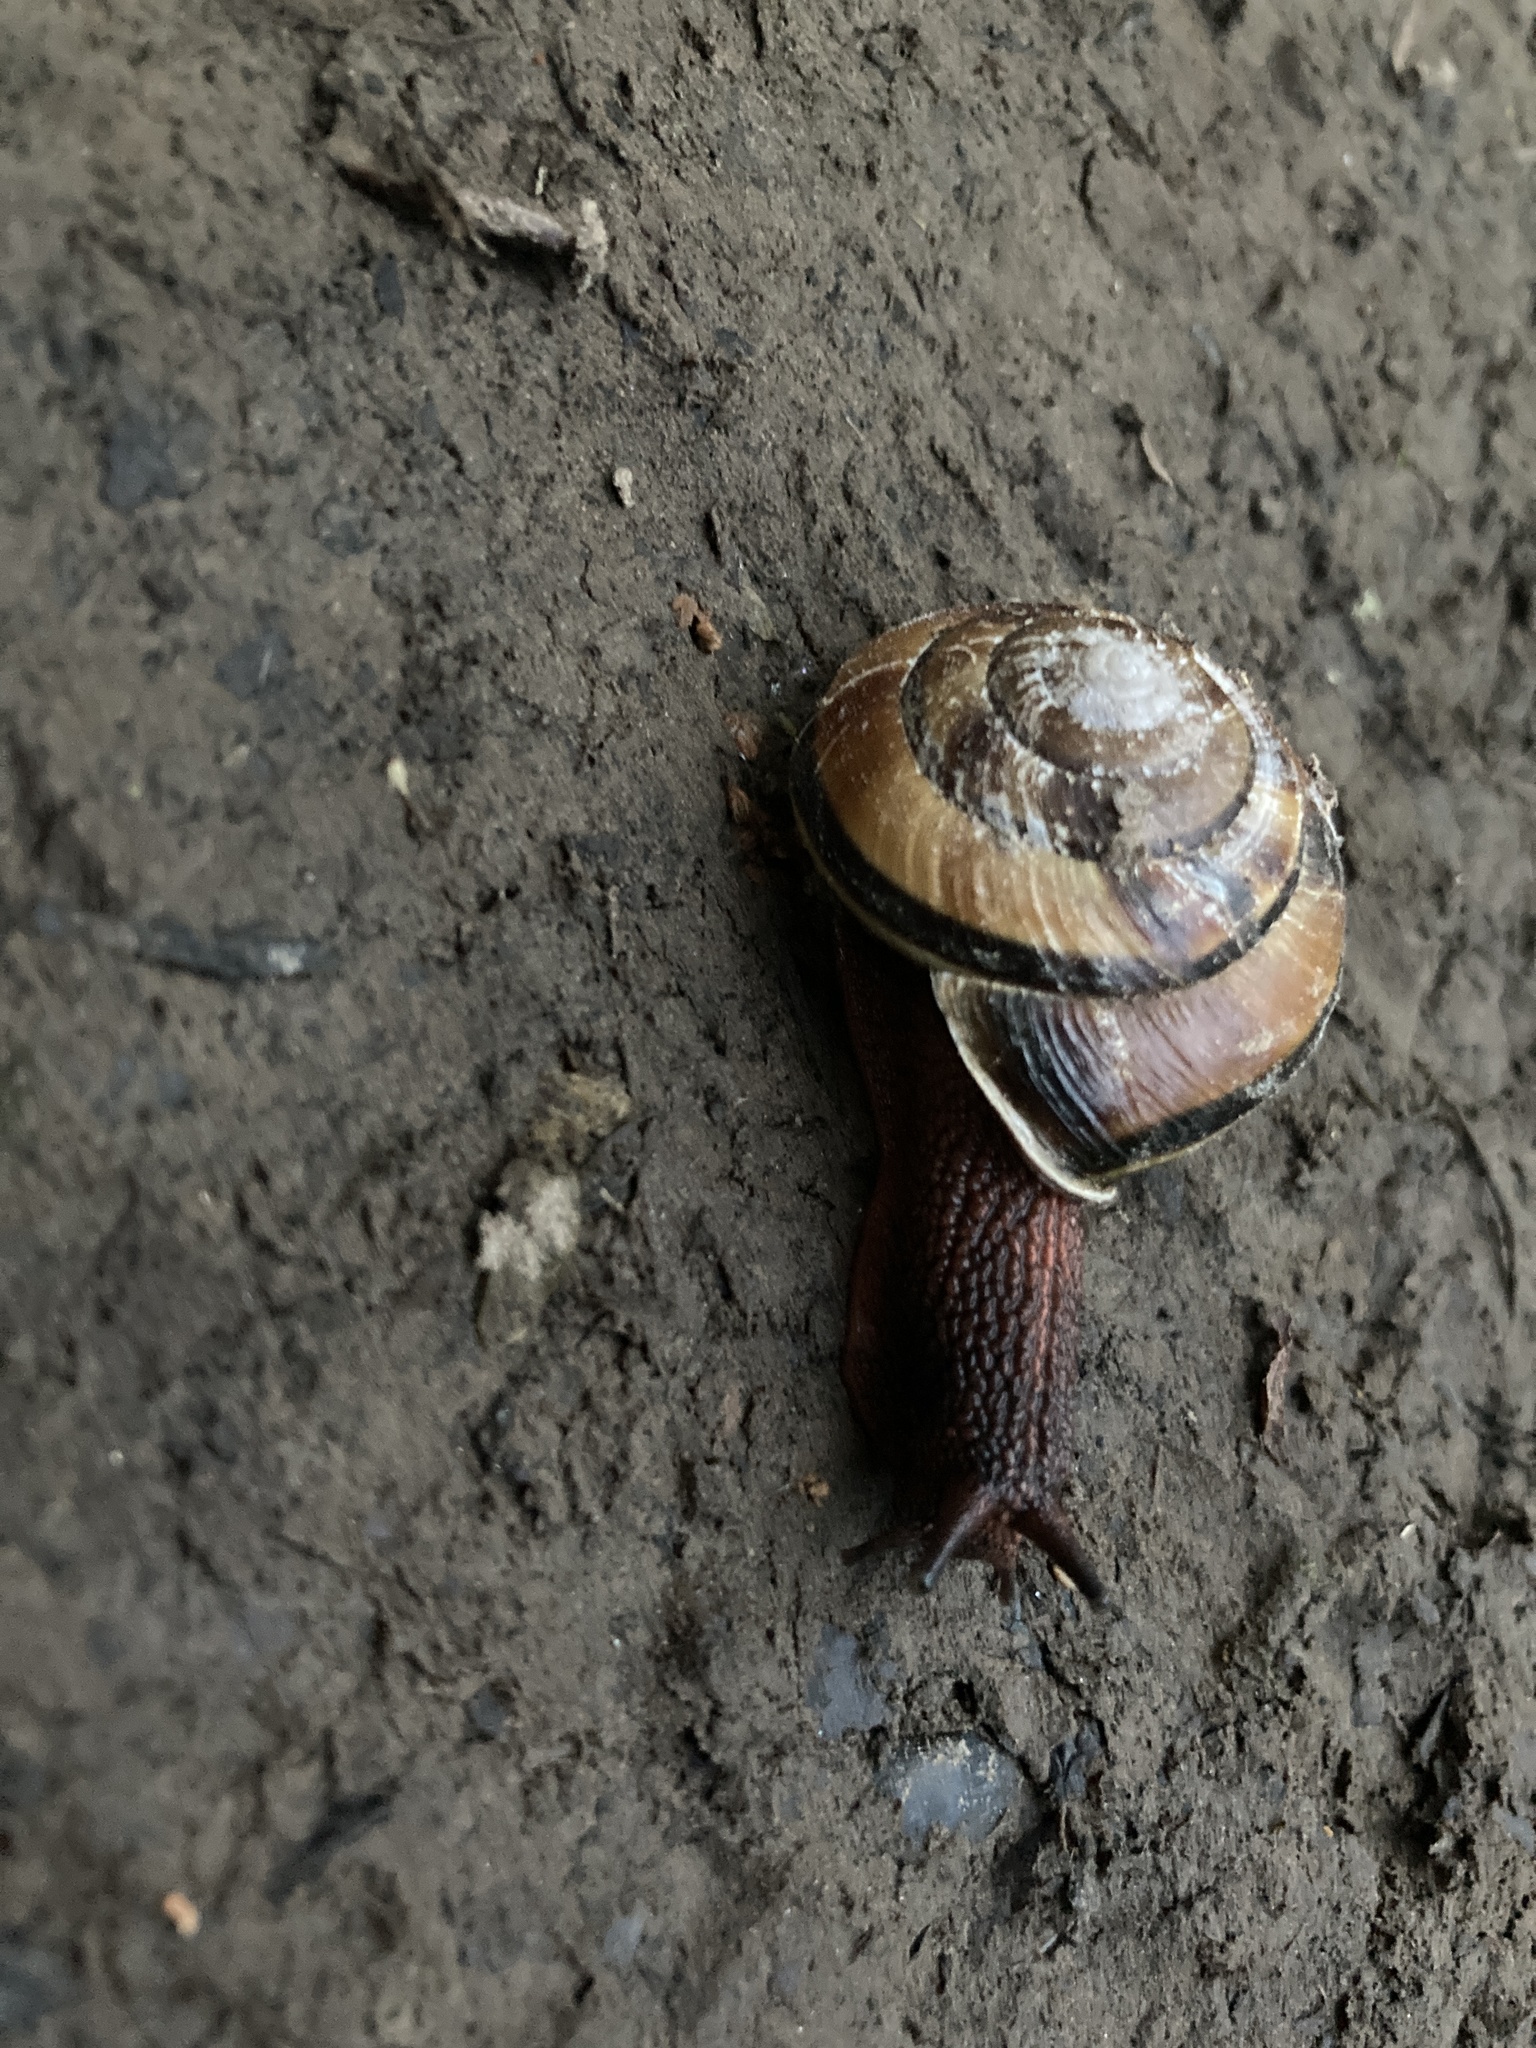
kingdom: Animalia
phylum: Mollusca
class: Gastropoda
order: Stylommatophora
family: Xanthonychidae
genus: Monadenia
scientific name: Monadenia fidelis
